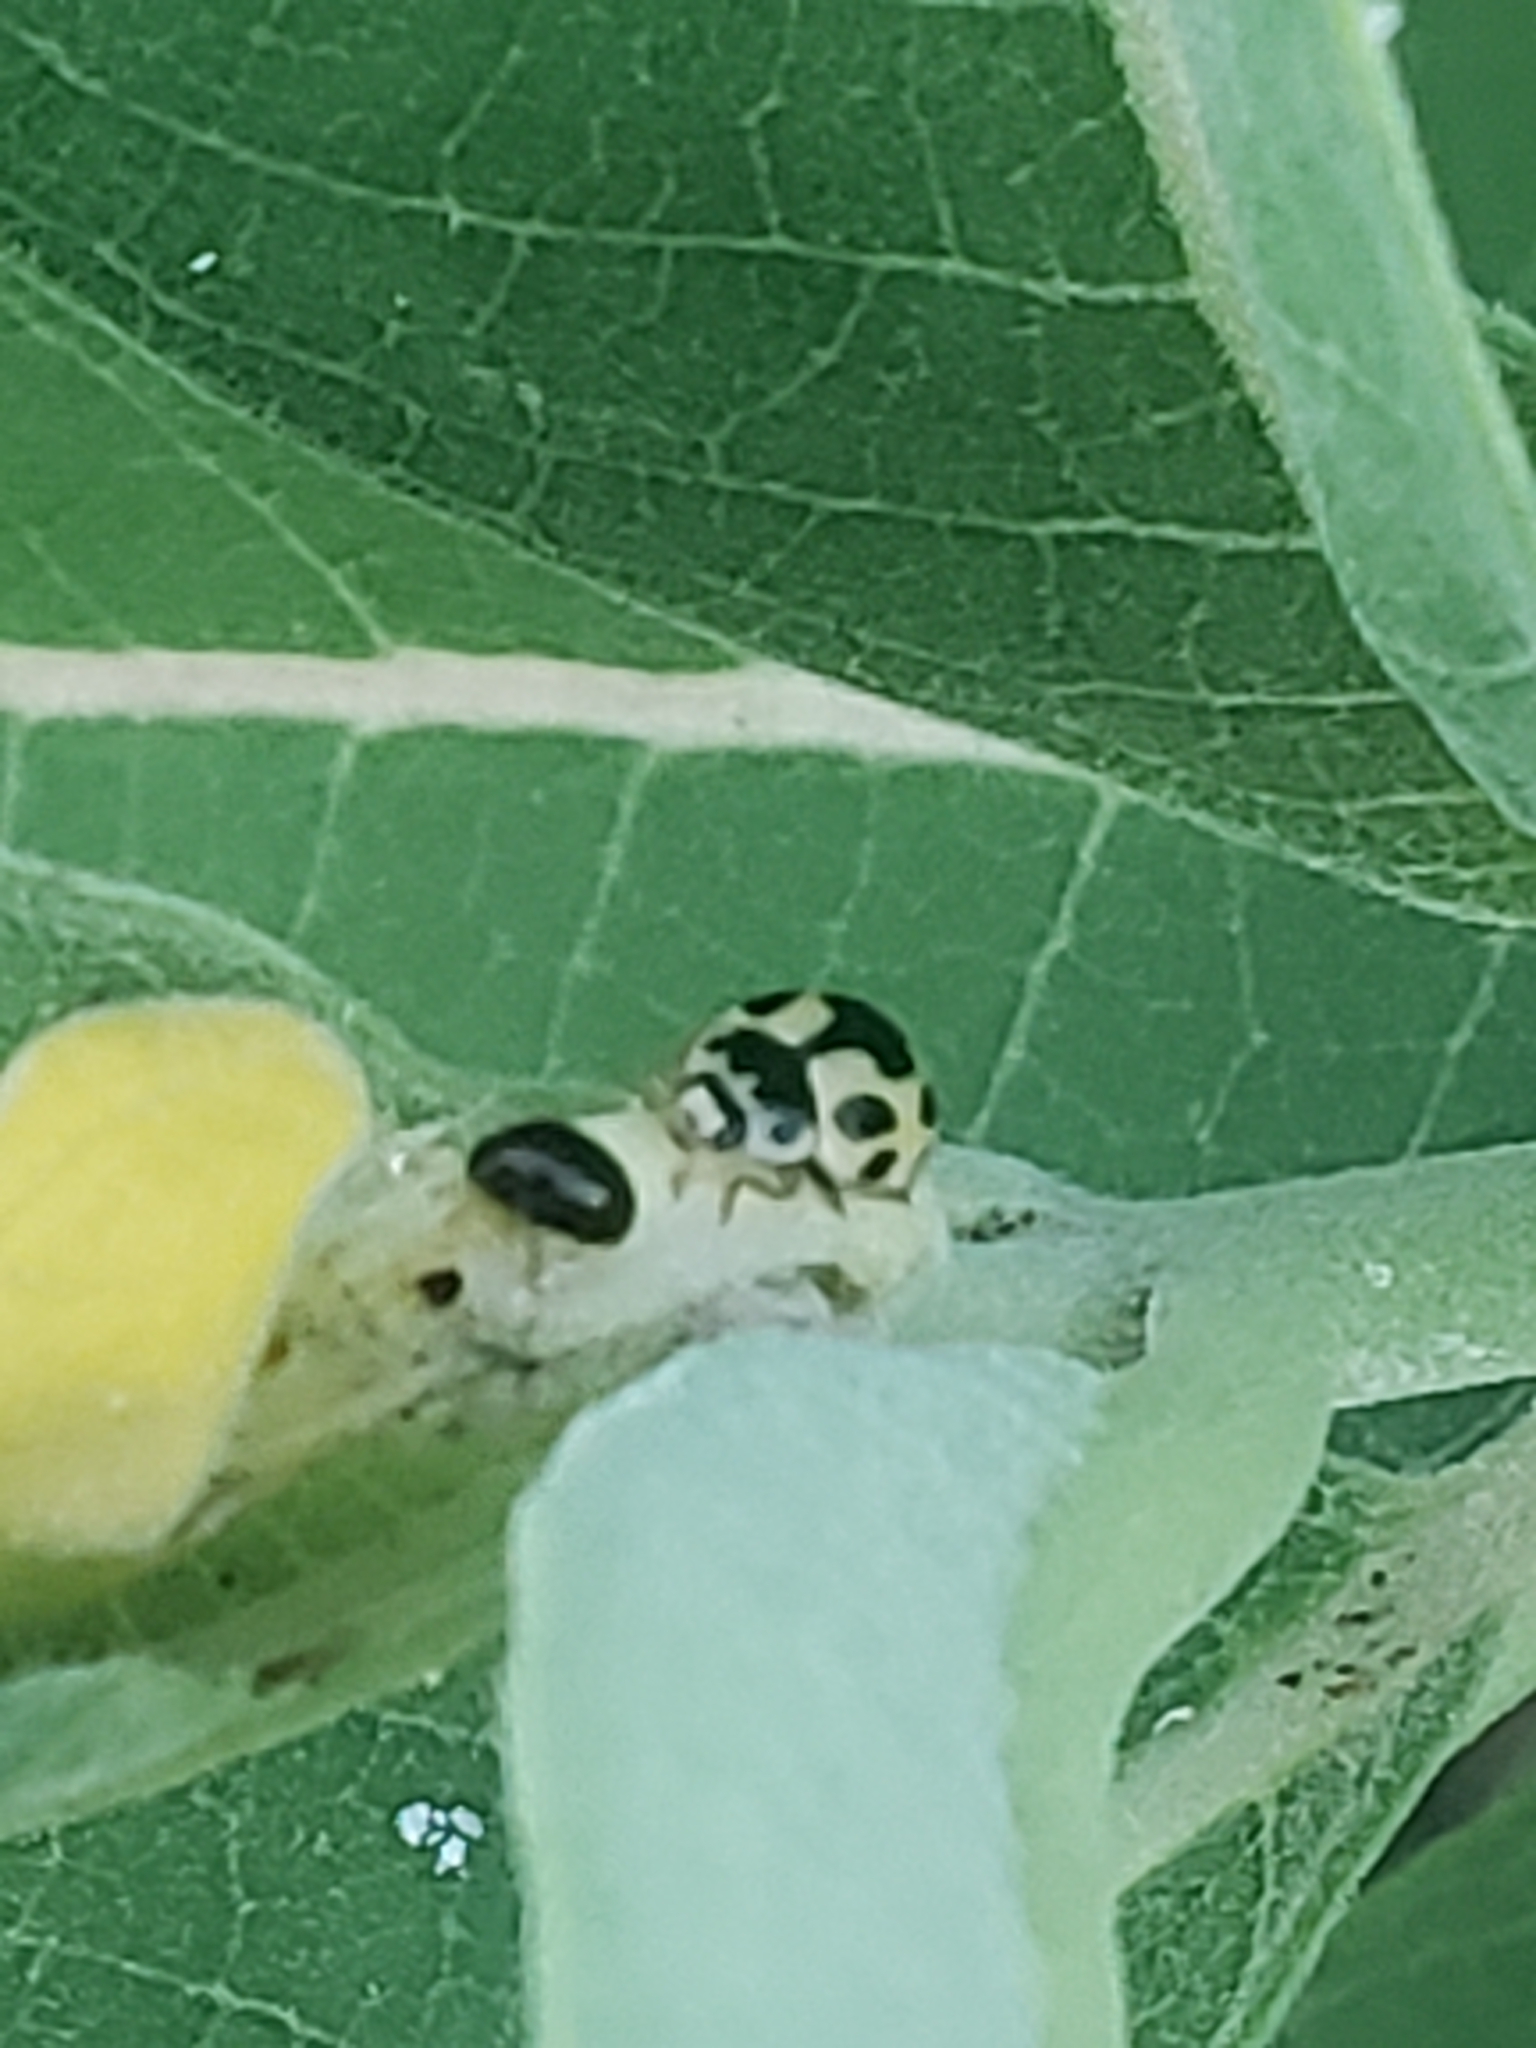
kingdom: Animalia
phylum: Arthropoda
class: Insecta
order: Coleoptera
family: Coccinellidae
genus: Propylaea
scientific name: Propylaea quatuordecimpunctata
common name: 14-spotted ladybird beetle
